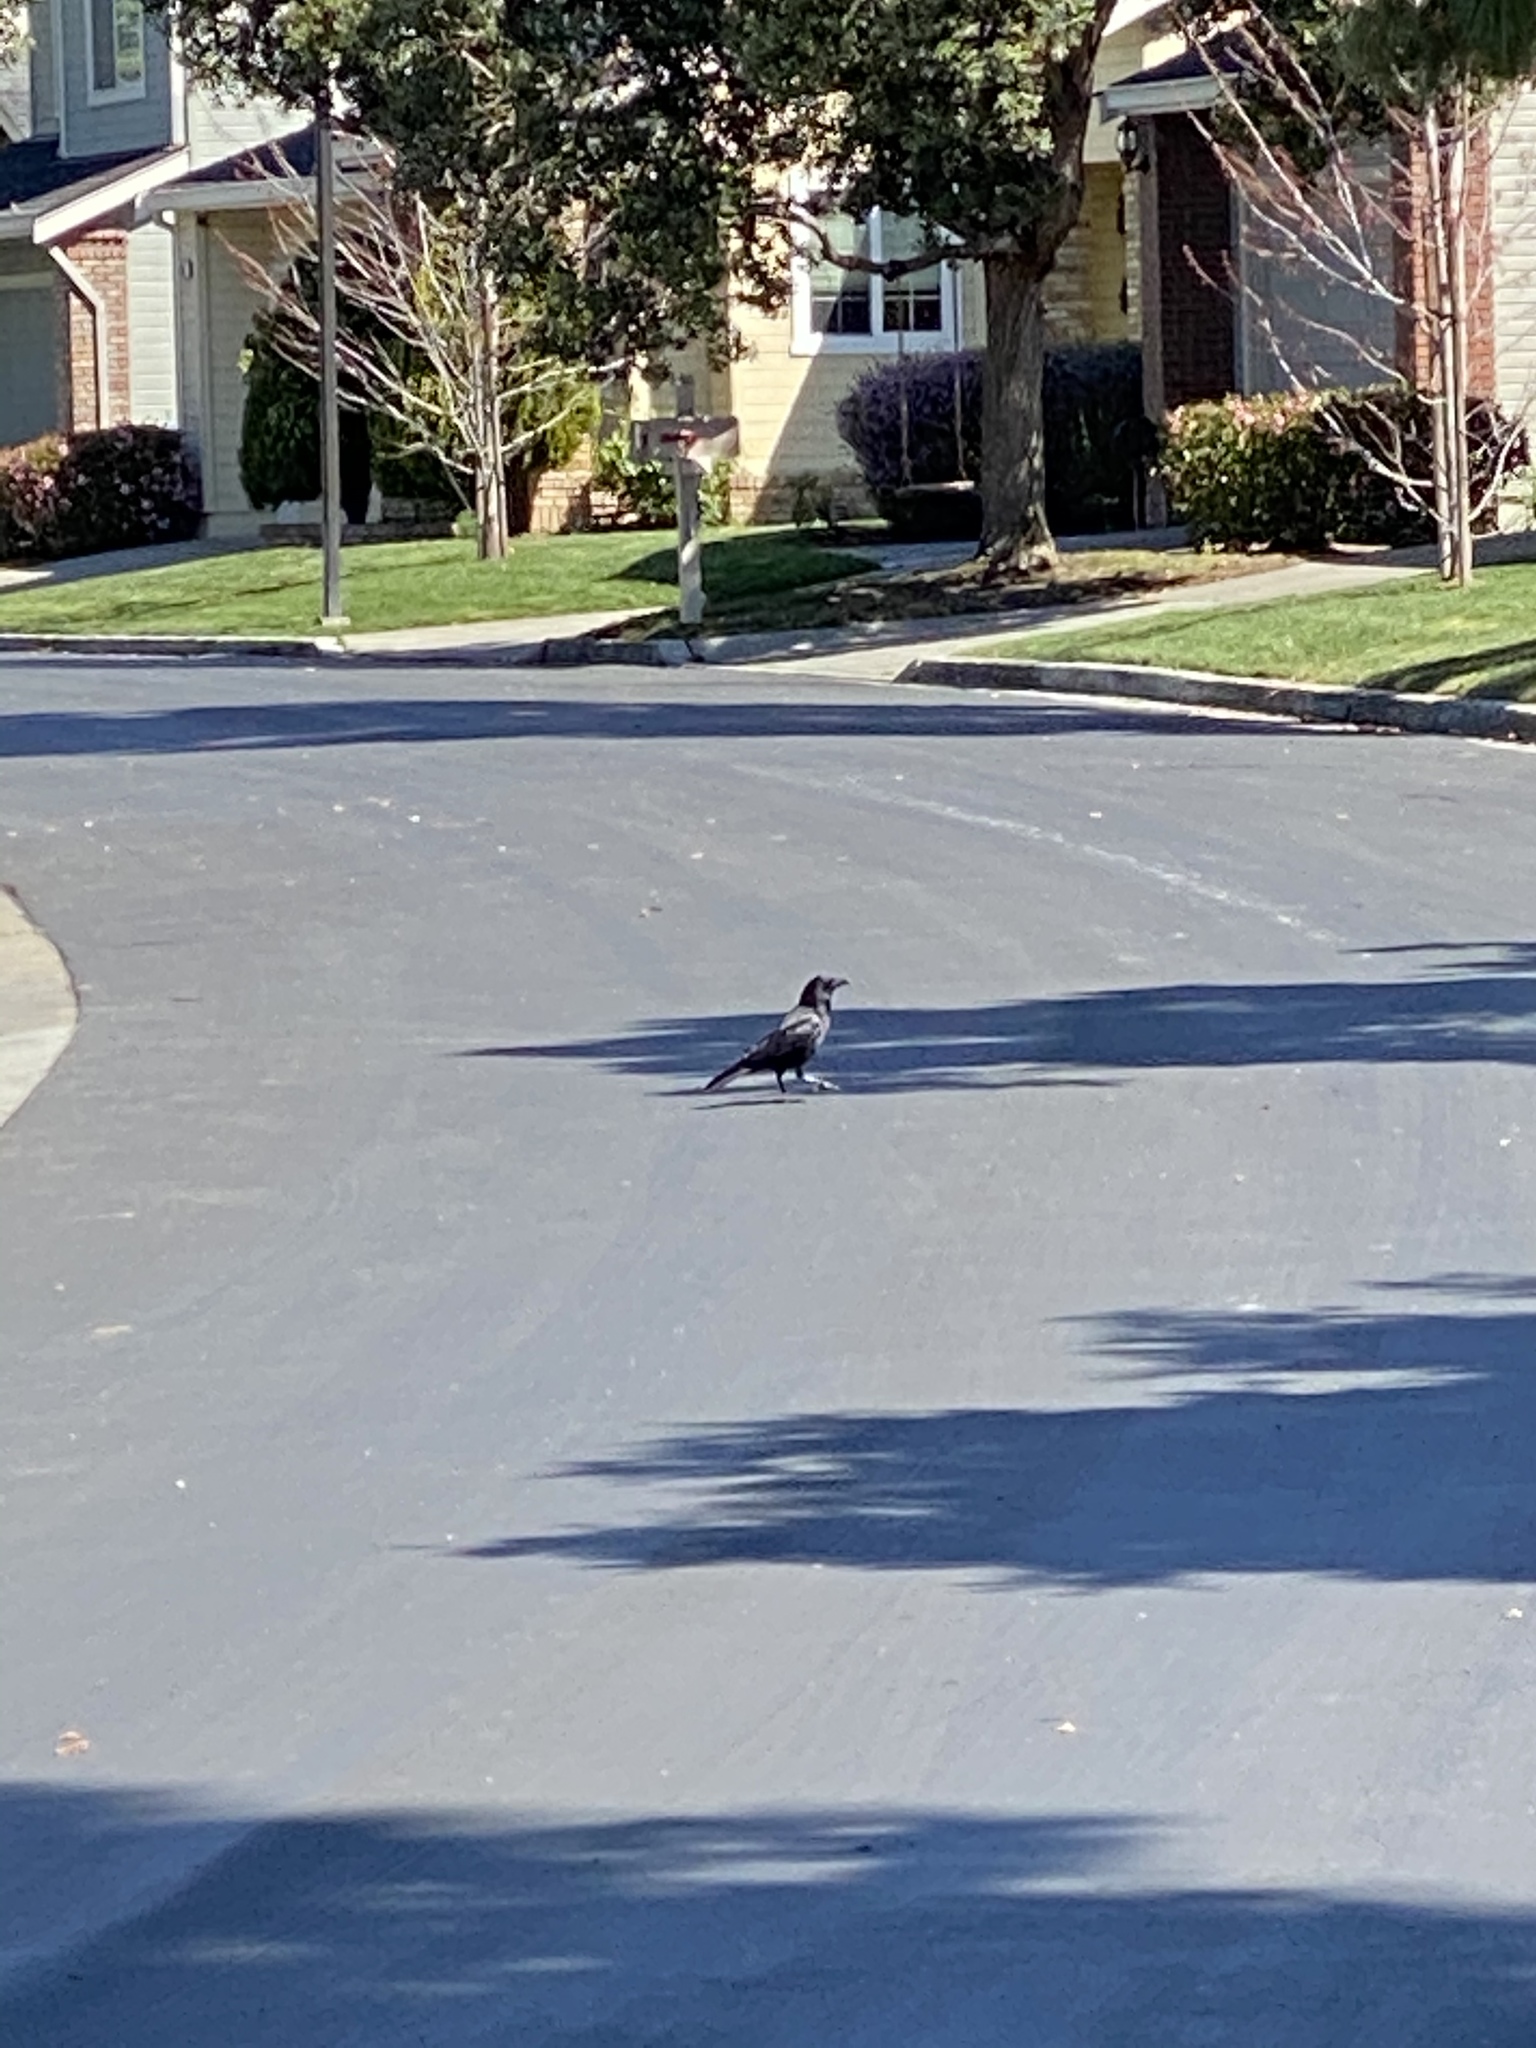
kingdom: Animalia
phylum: Chordata
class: Aves
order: Passeriformes
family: Corvidae
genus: Corvus
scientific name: Corvus brachyrhynchos
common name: American crow
